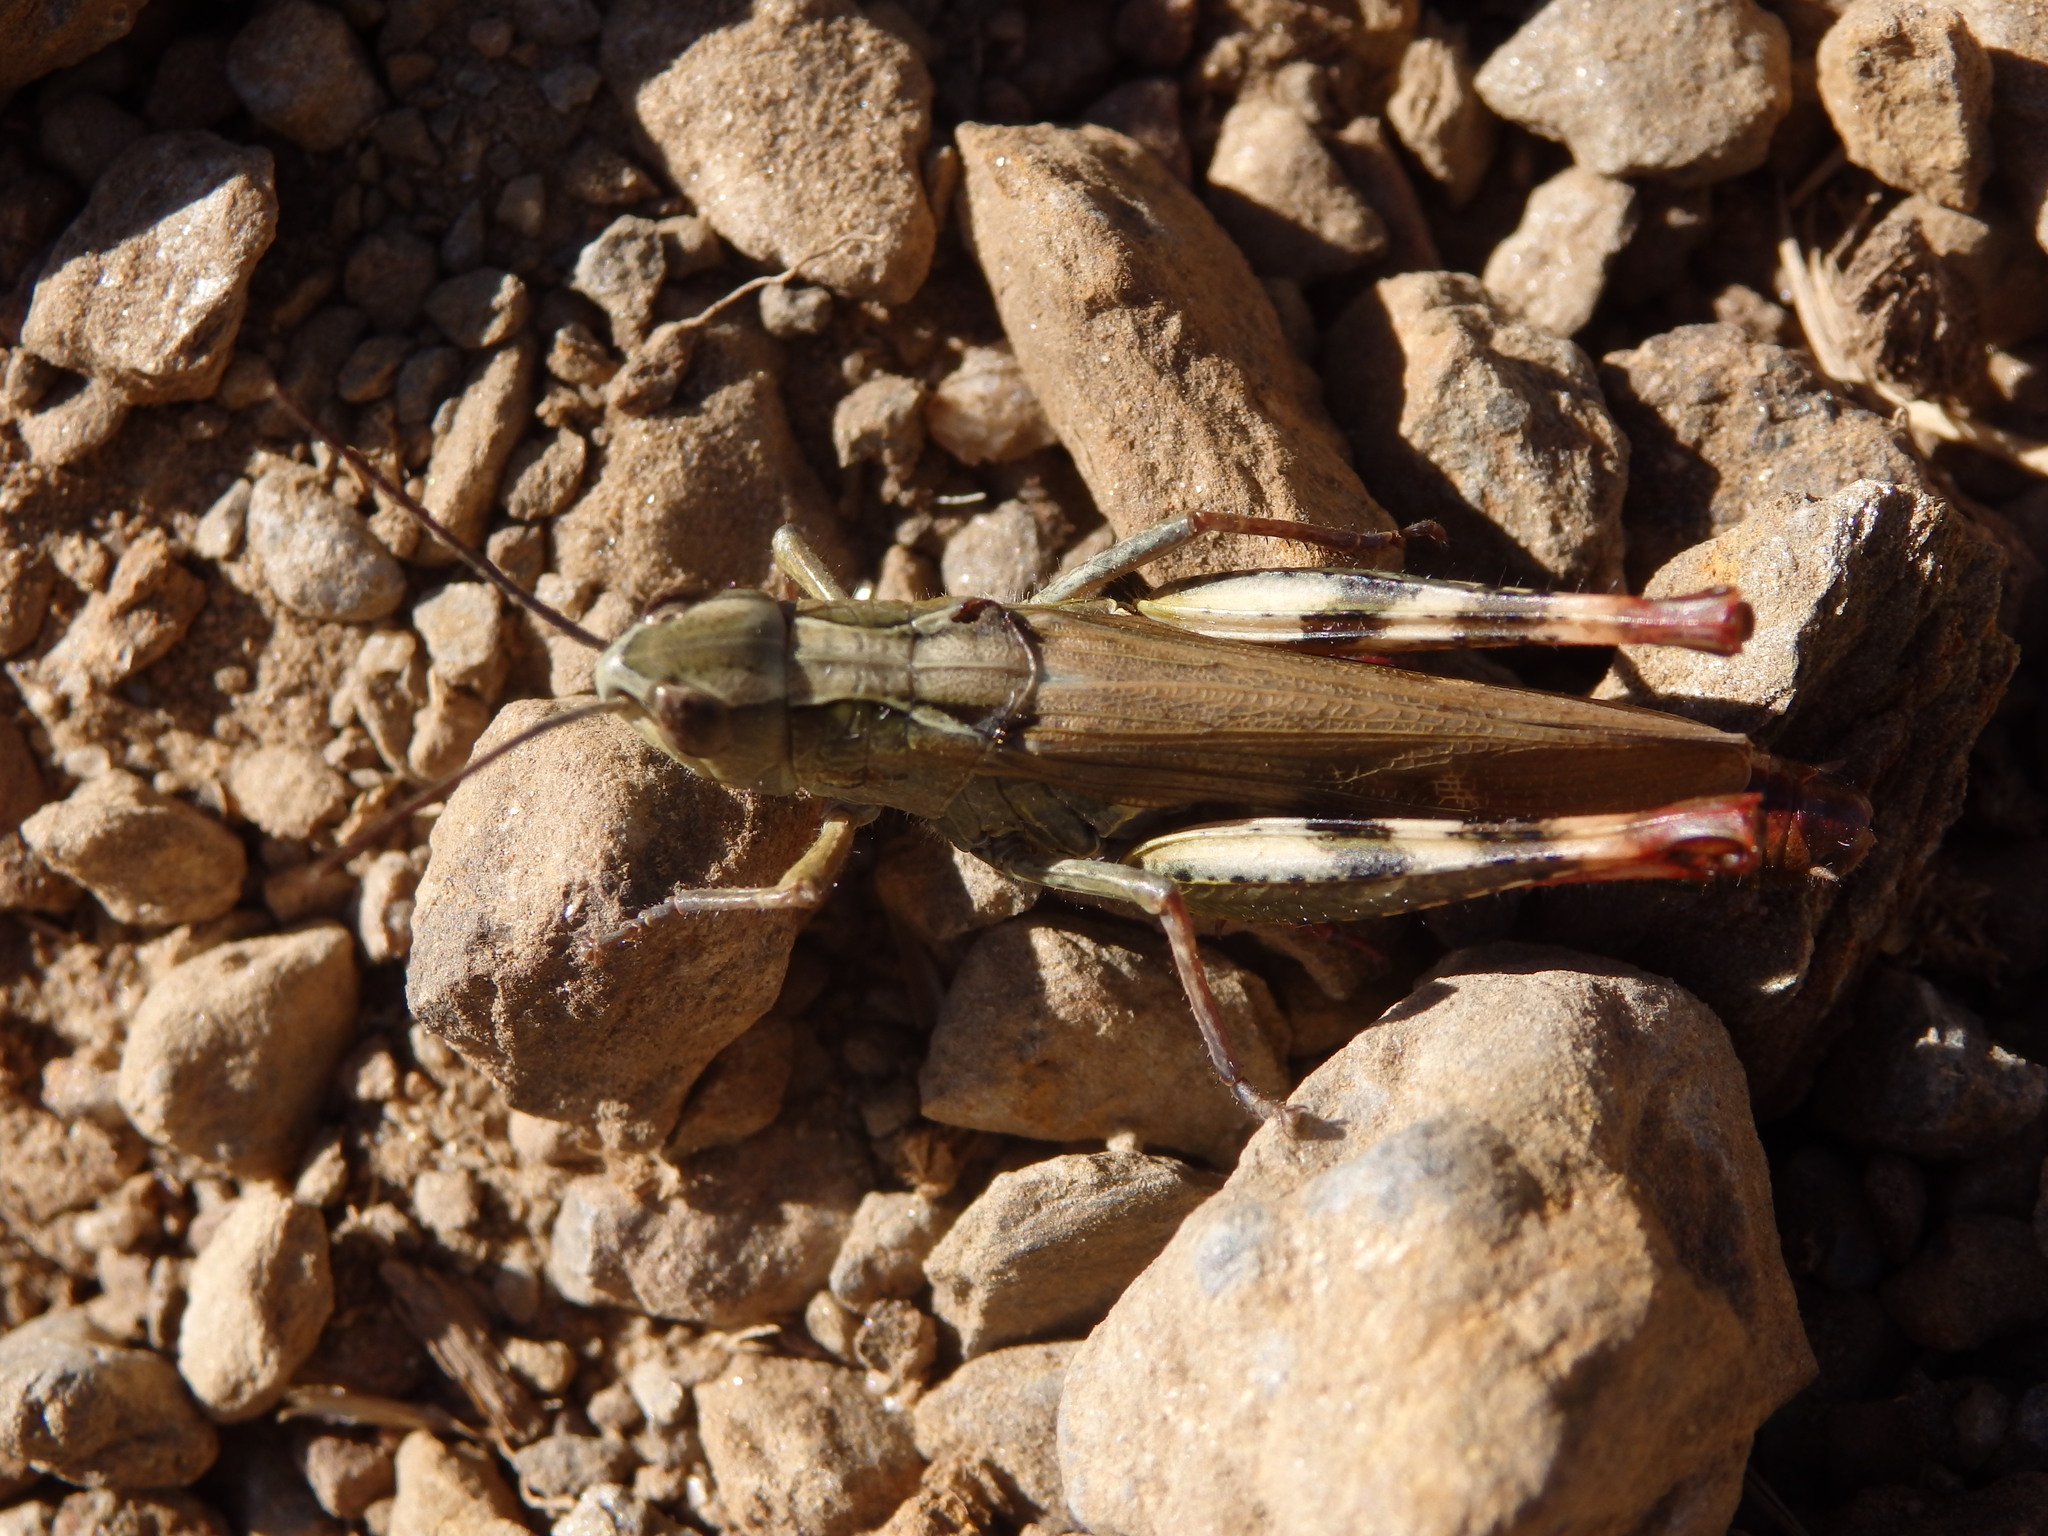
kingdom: Animalia
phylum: Arthropoda
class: Insecta
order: Orthoptera
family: Acrididae
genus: Chorthippus
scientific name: Chorthippus binotatus
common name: Two-marked grasshopper
